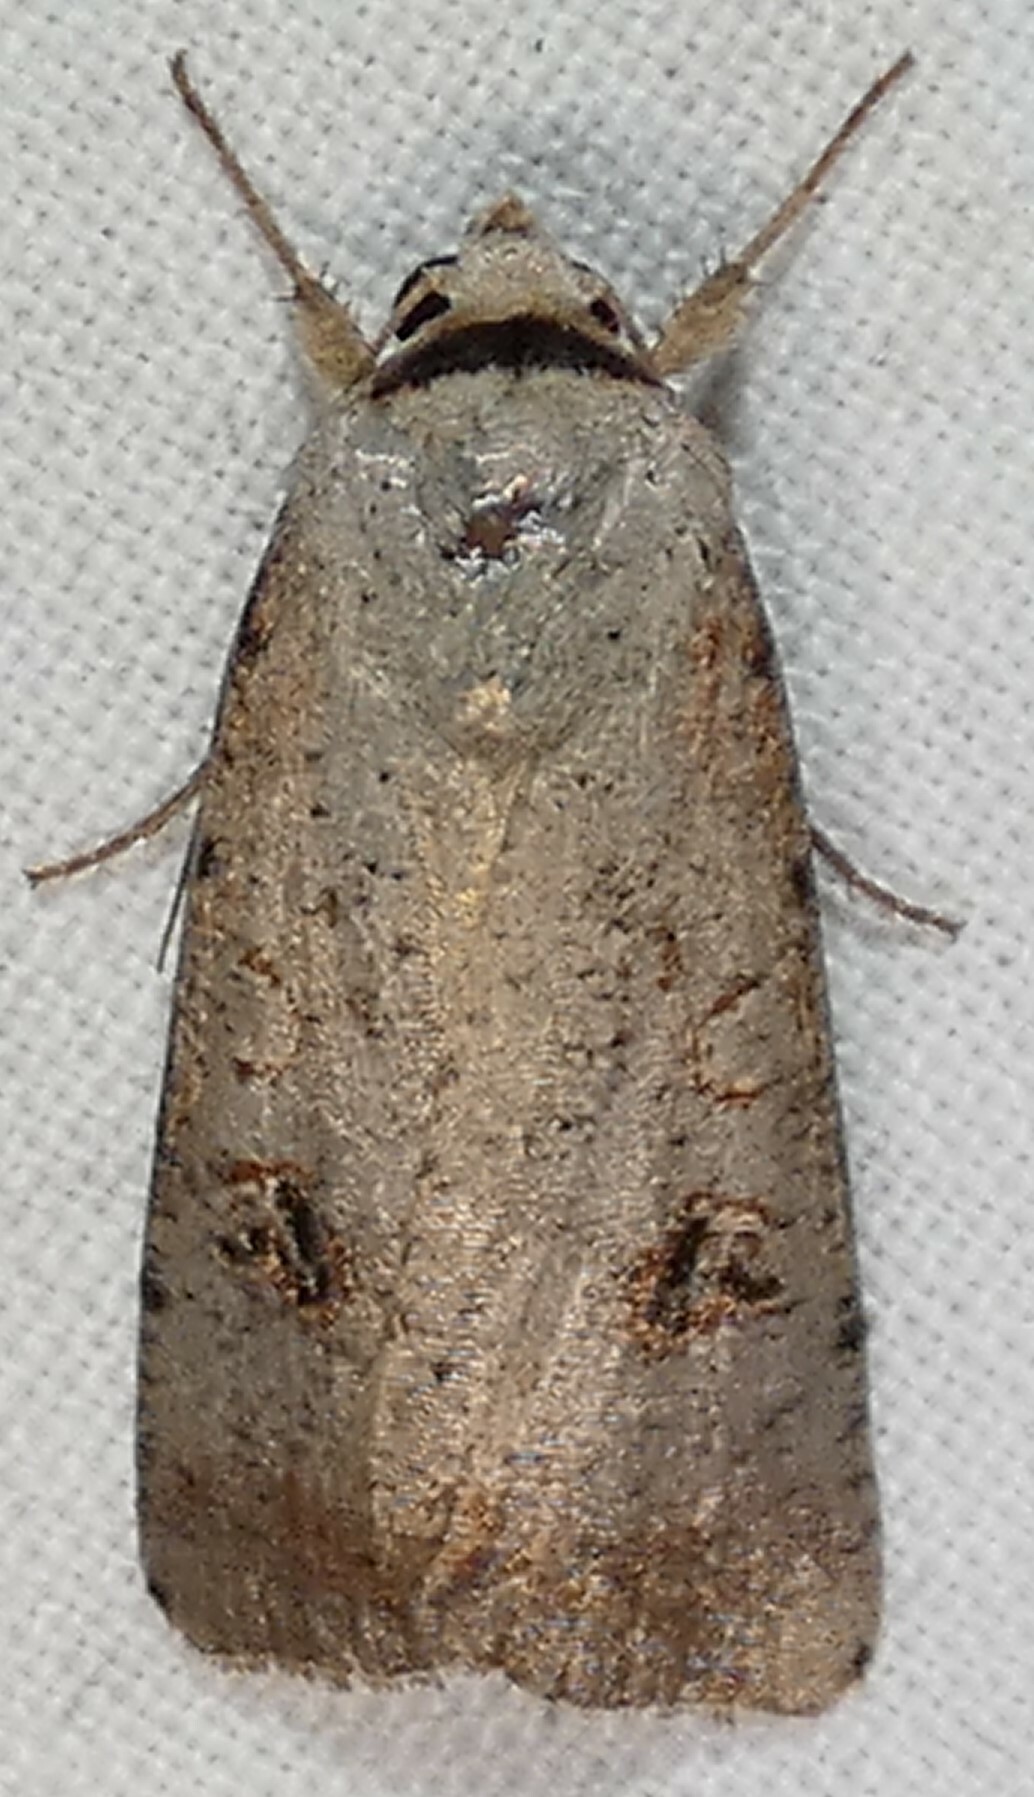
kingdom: Animalia
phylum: Arthropoda
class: Insecta
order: Lepidoptera
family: Noctuidae
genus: Anicla
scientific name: Anicla infecta
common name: Green cutworm
